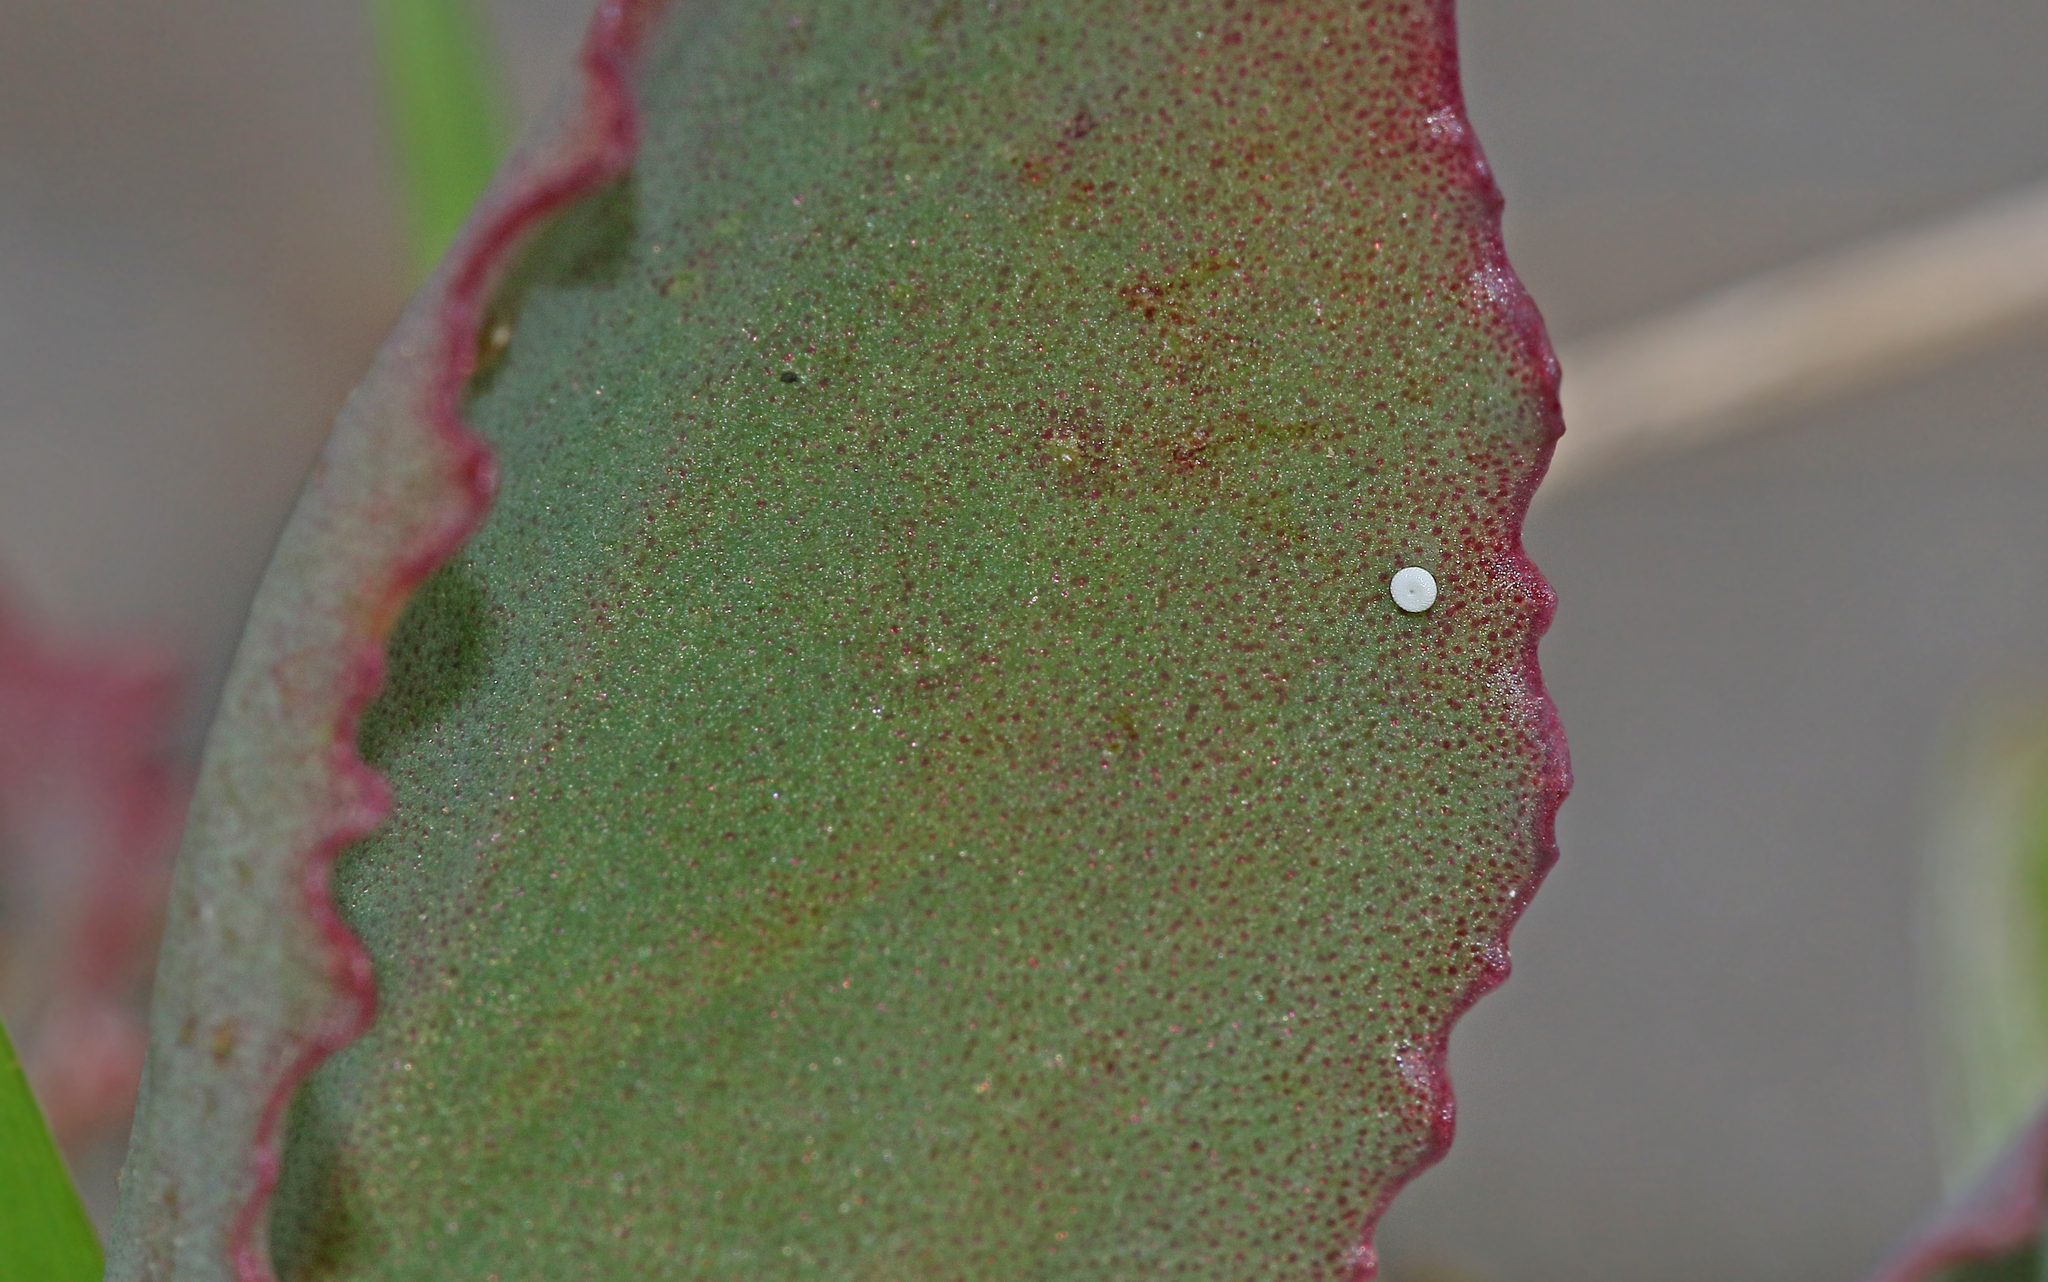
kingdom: Animalia
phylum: Arthropoda
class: Insecta
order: Lepidoptera
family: Lycaenidae
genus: Scolitantides
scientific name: Scolitantides orion
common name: Chequered blue
